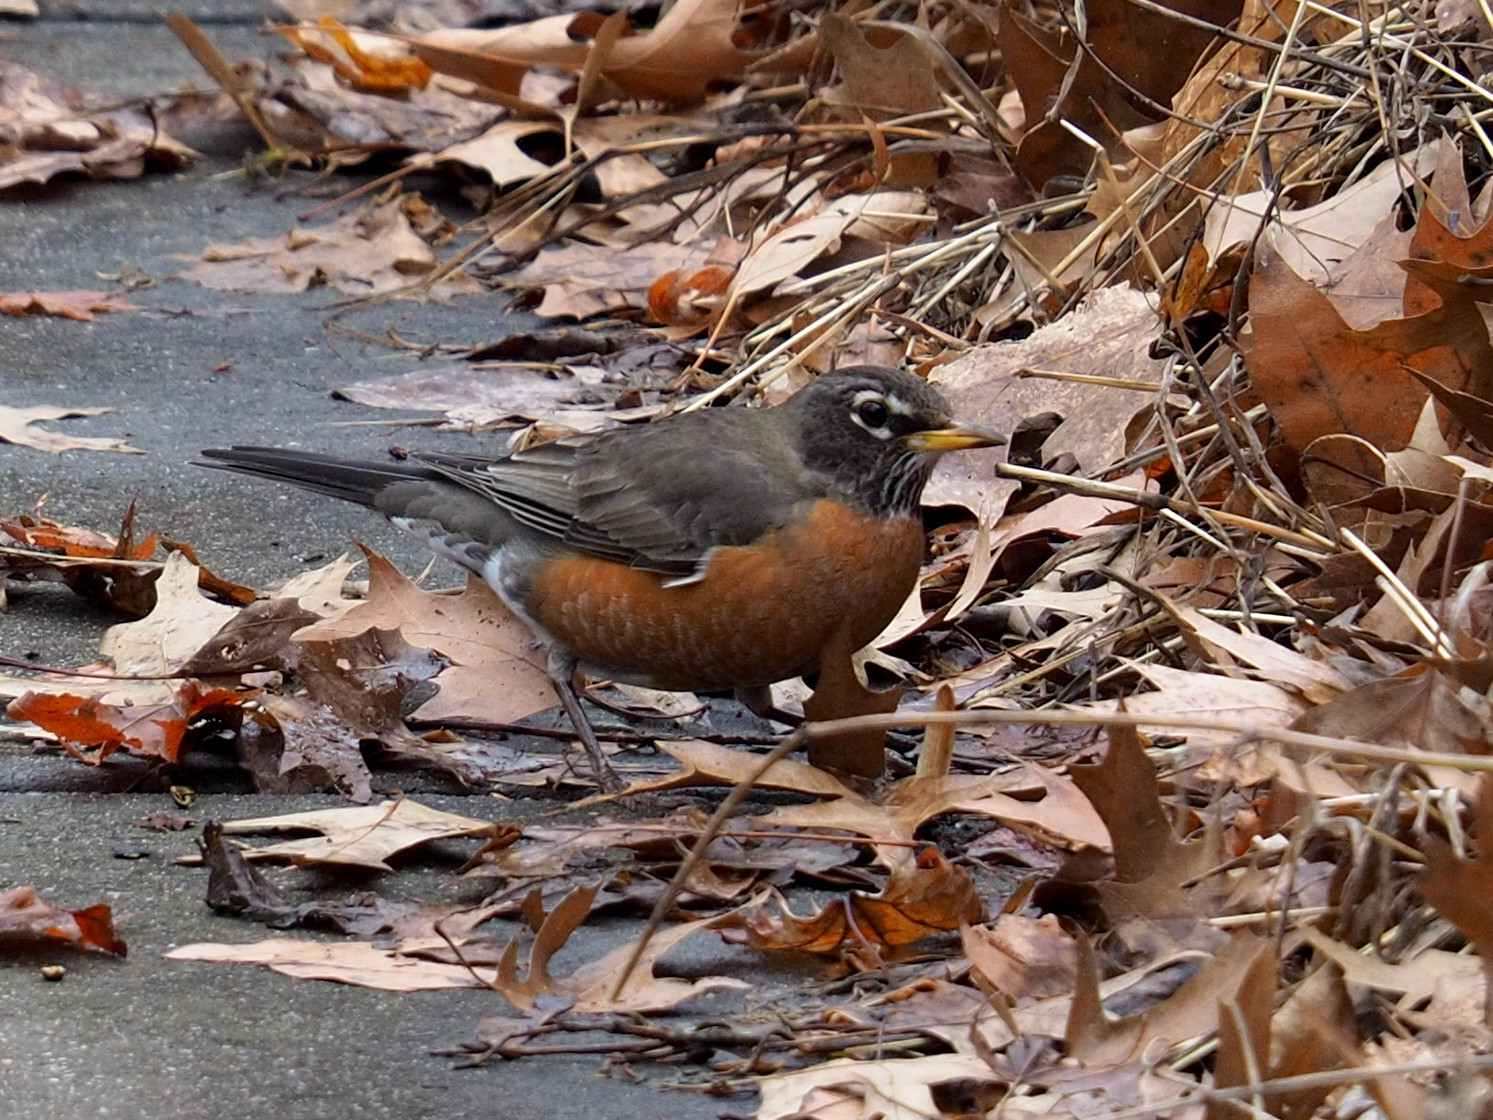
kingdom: Animalia
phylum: Chordata
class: Aves
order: Passeriformes
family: Turdidae
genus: Turdus
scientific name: Turdus migratorius
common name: American robin
